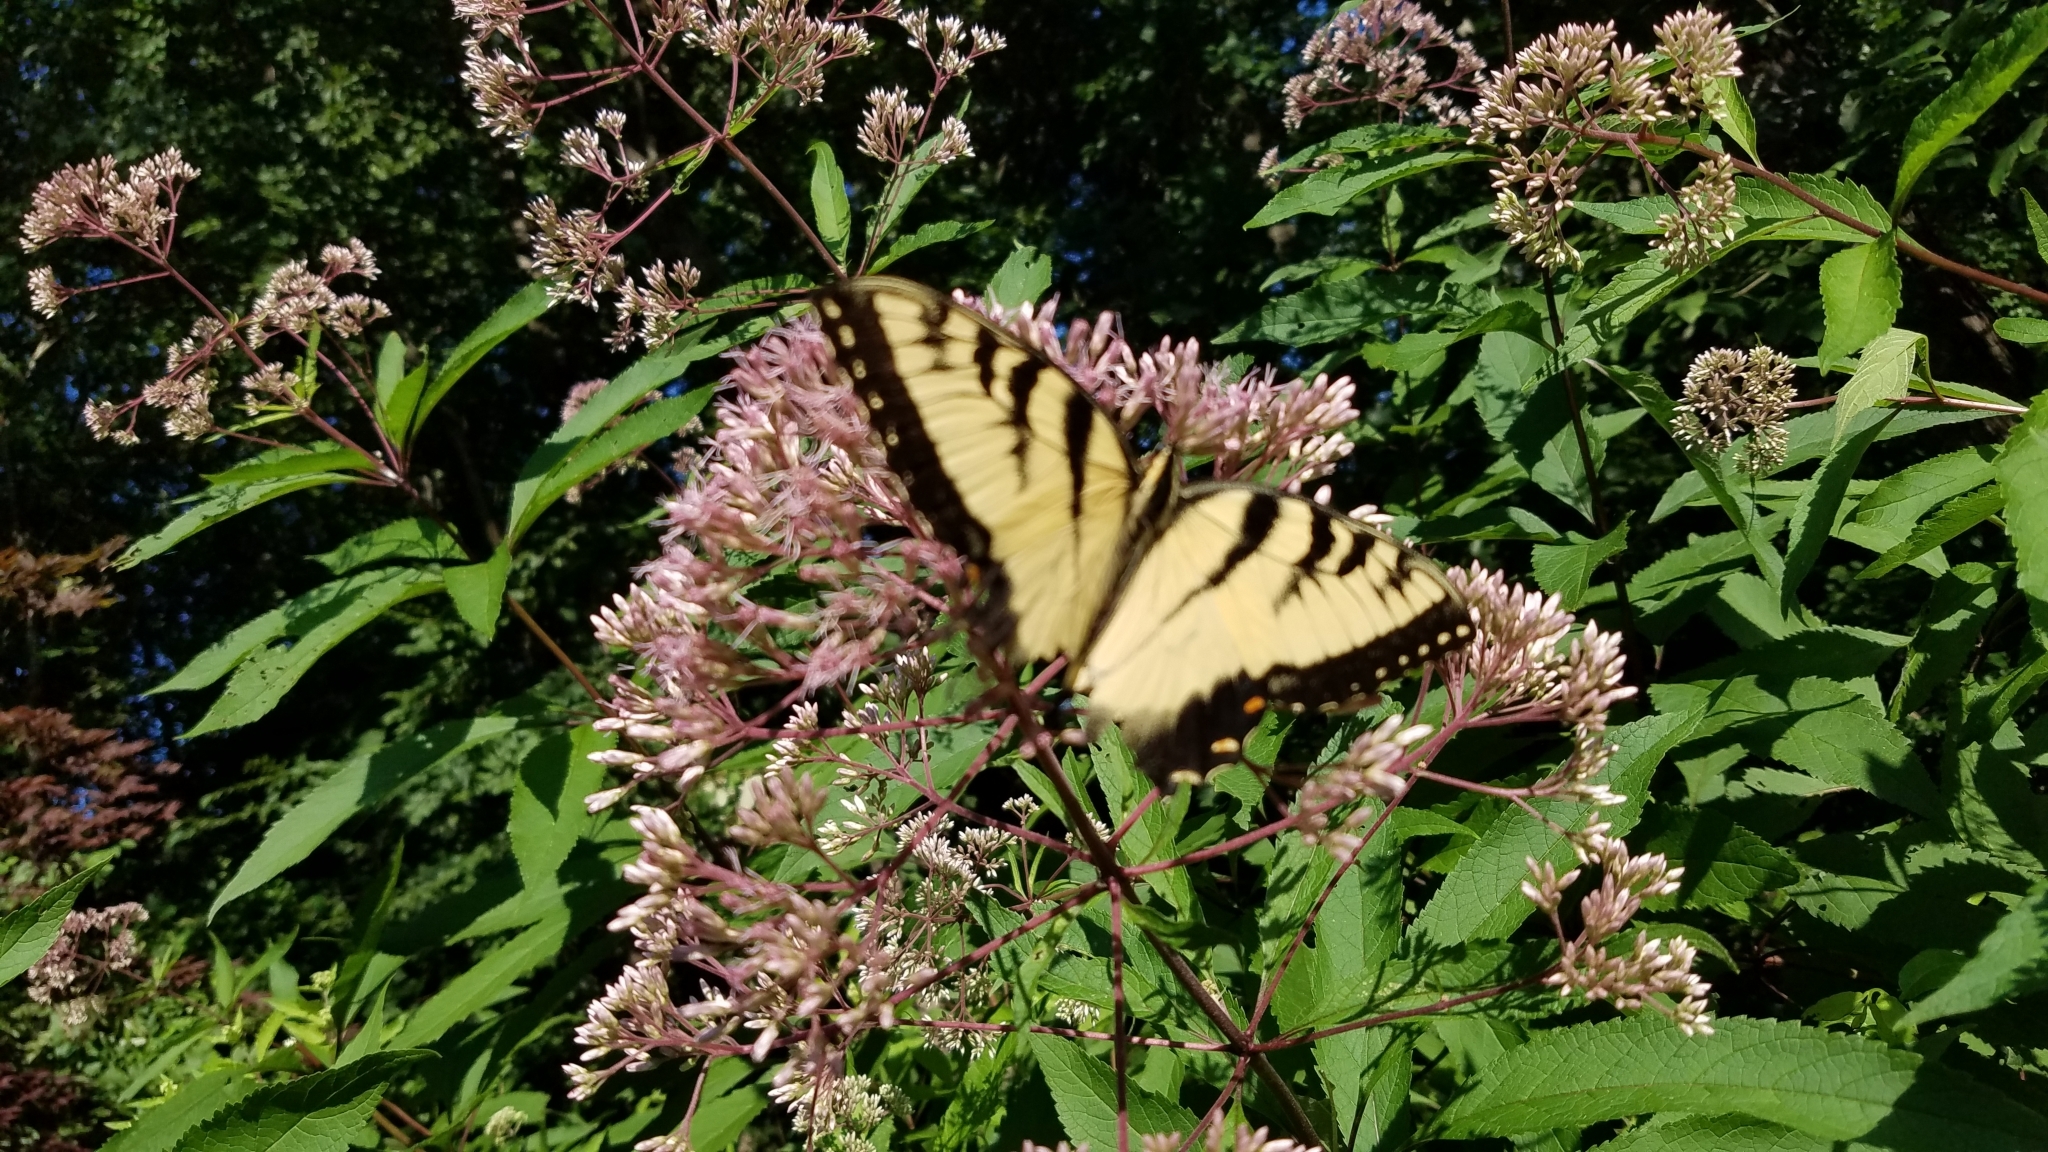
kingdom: Animalia
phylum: Arthropoda
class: Insecta
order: Lepidoptera
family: Papilionidae
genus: Papilio
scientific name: Papilio glaucus
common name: Tiger swallowtail
